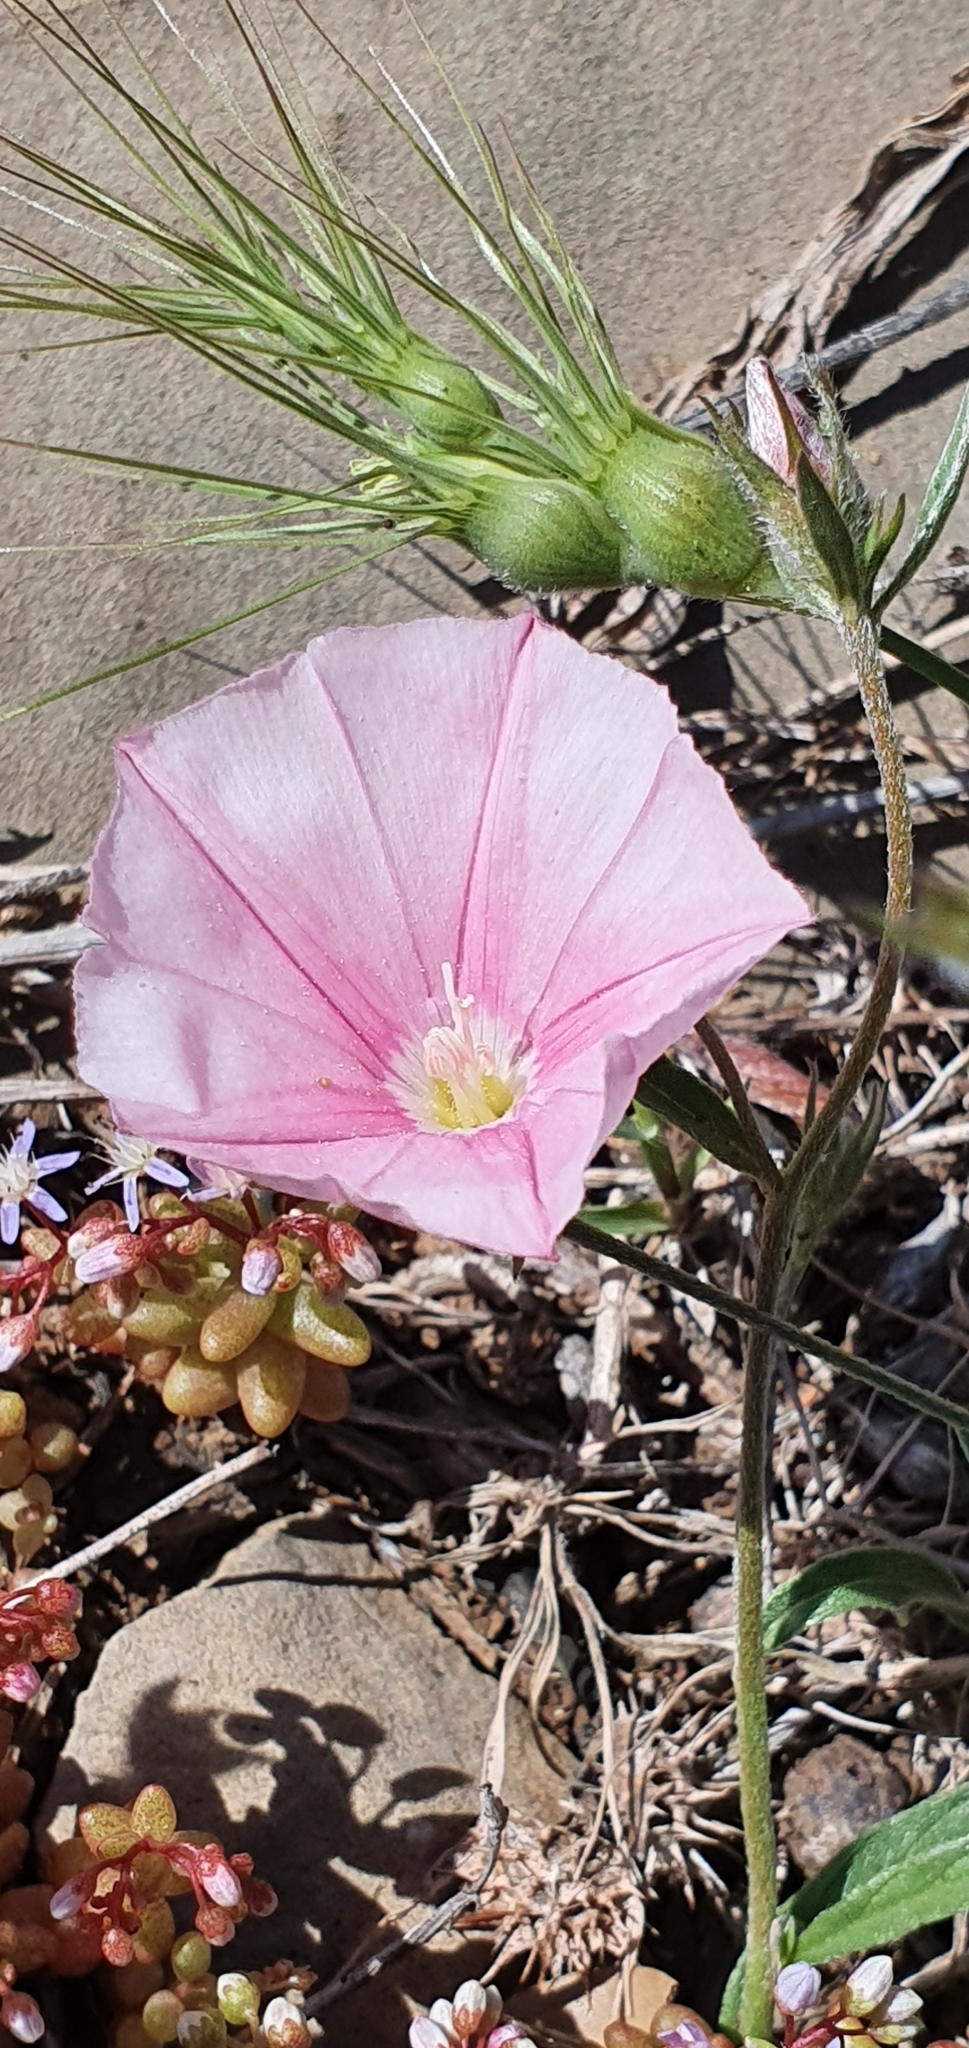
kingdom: Plantae
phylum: Tracheophyta
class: Magnoliopsida
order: Solanales
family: Convolvulaceae
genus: Convolvulus
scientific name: Convolvulus cantabrica
